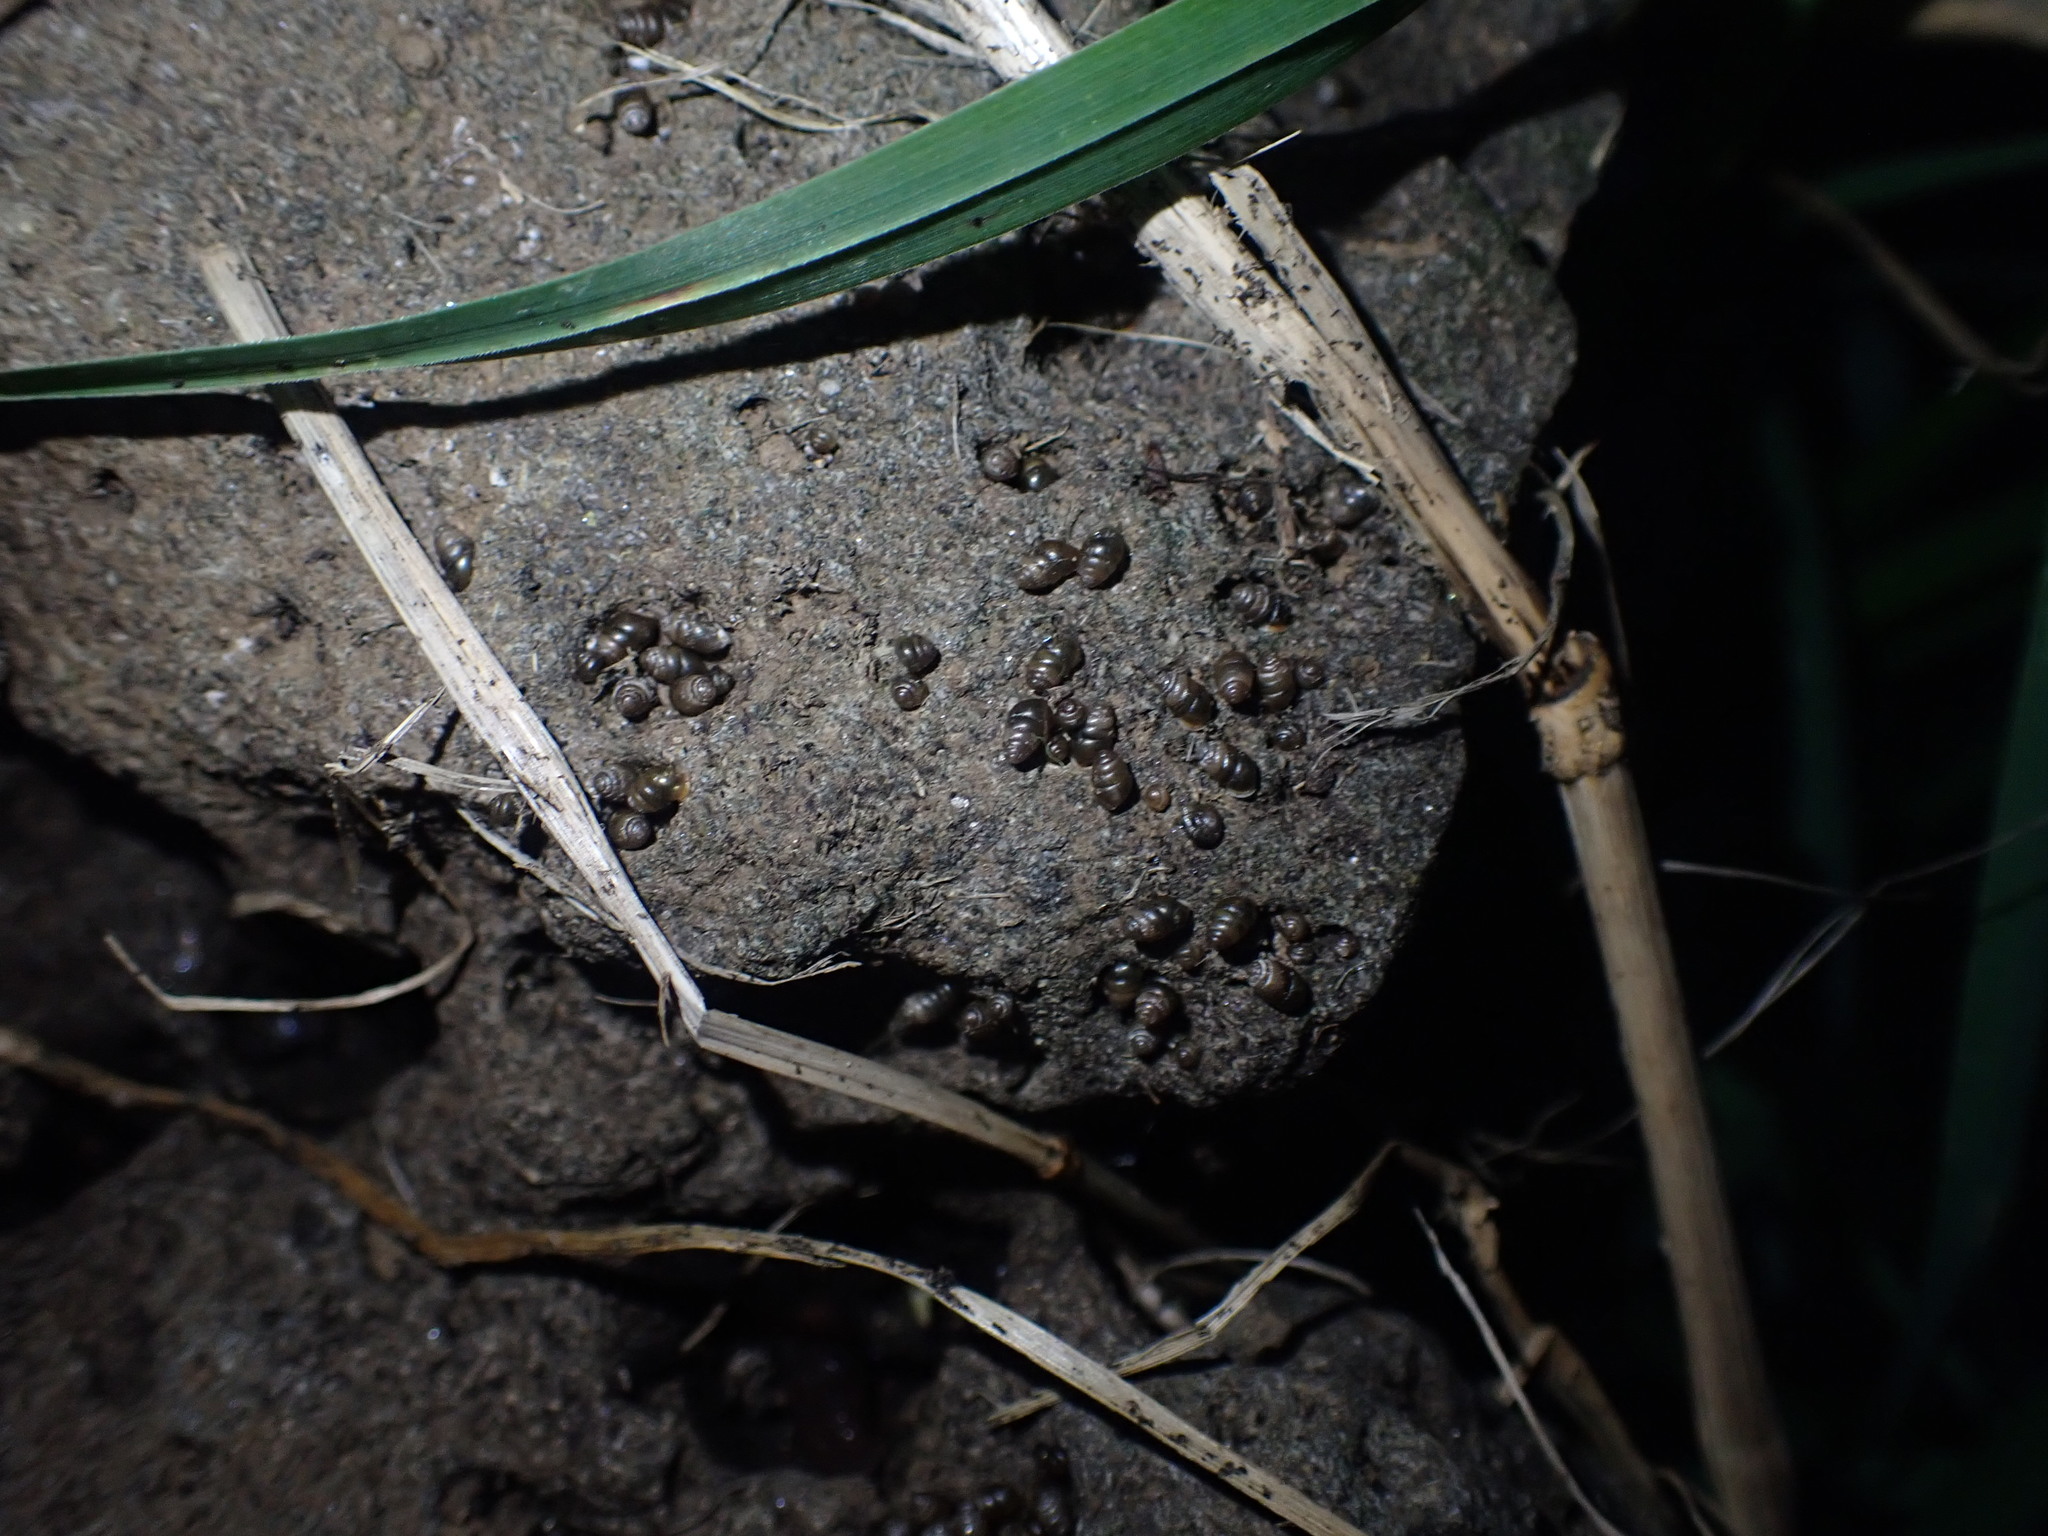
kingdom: Animalia
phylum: Mollusca
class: Gastropoda
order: Stylommatophora
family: Lauriidae
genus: Lauria
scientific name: Lauria cylindracea
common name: Common chrysalis snail
